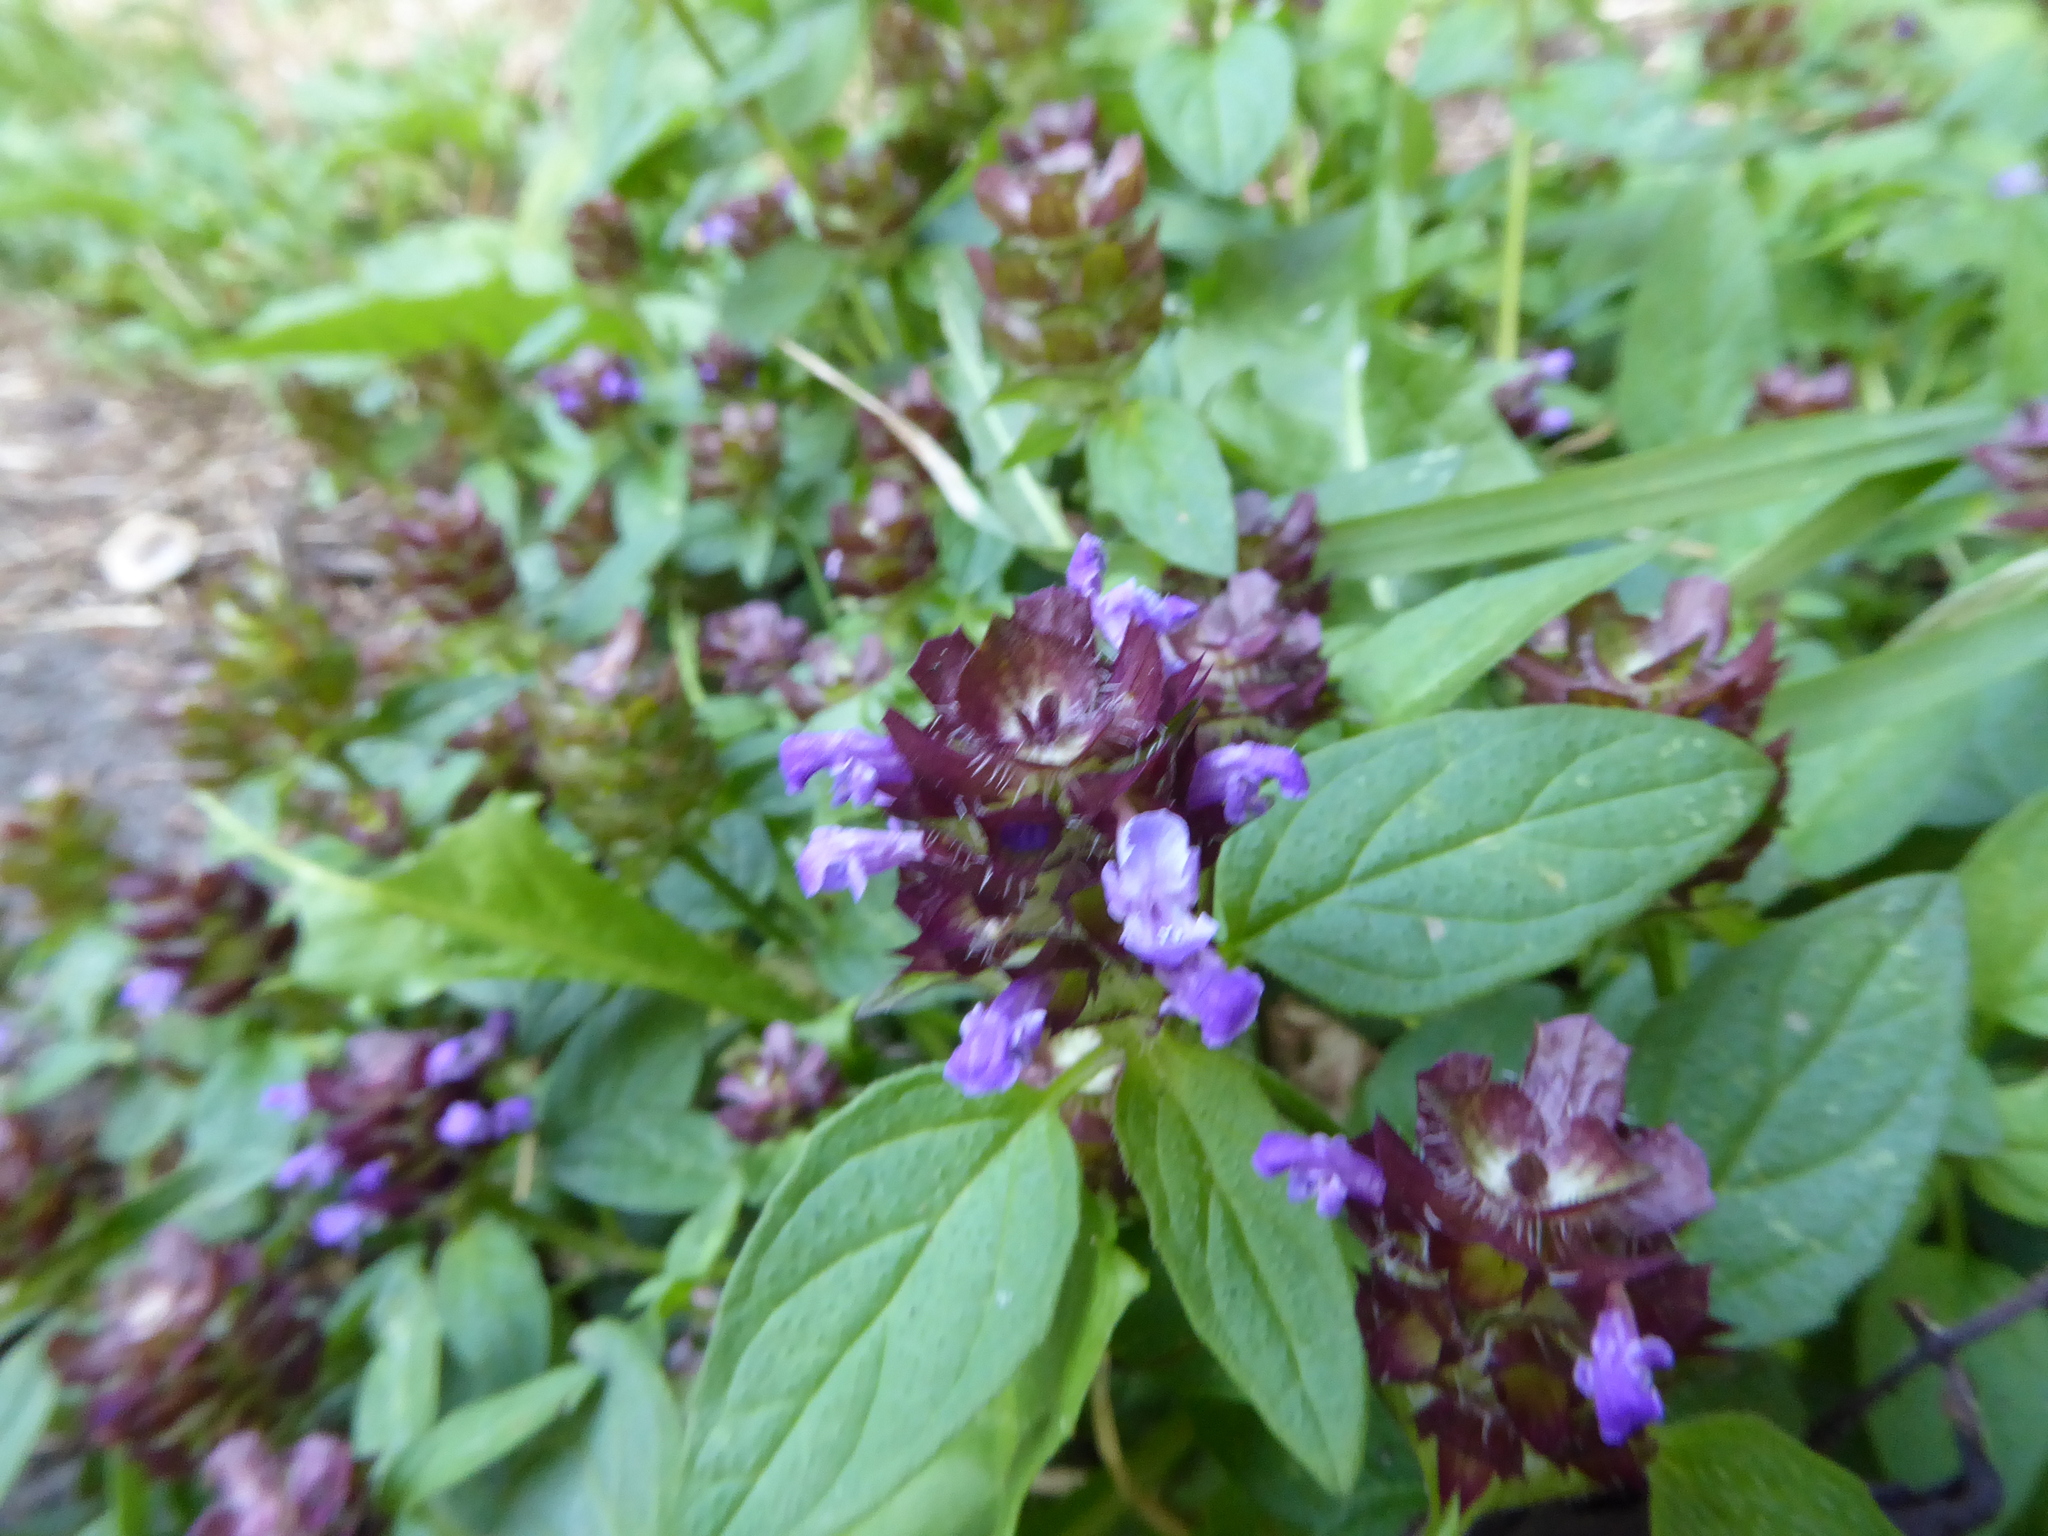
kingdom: Plantae
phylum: Tracheophyta
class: Magnoliopsida
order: Lamiales
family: Lamiaceae
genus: Prunella
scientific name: Prunella vulgaris
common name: Heal-all
